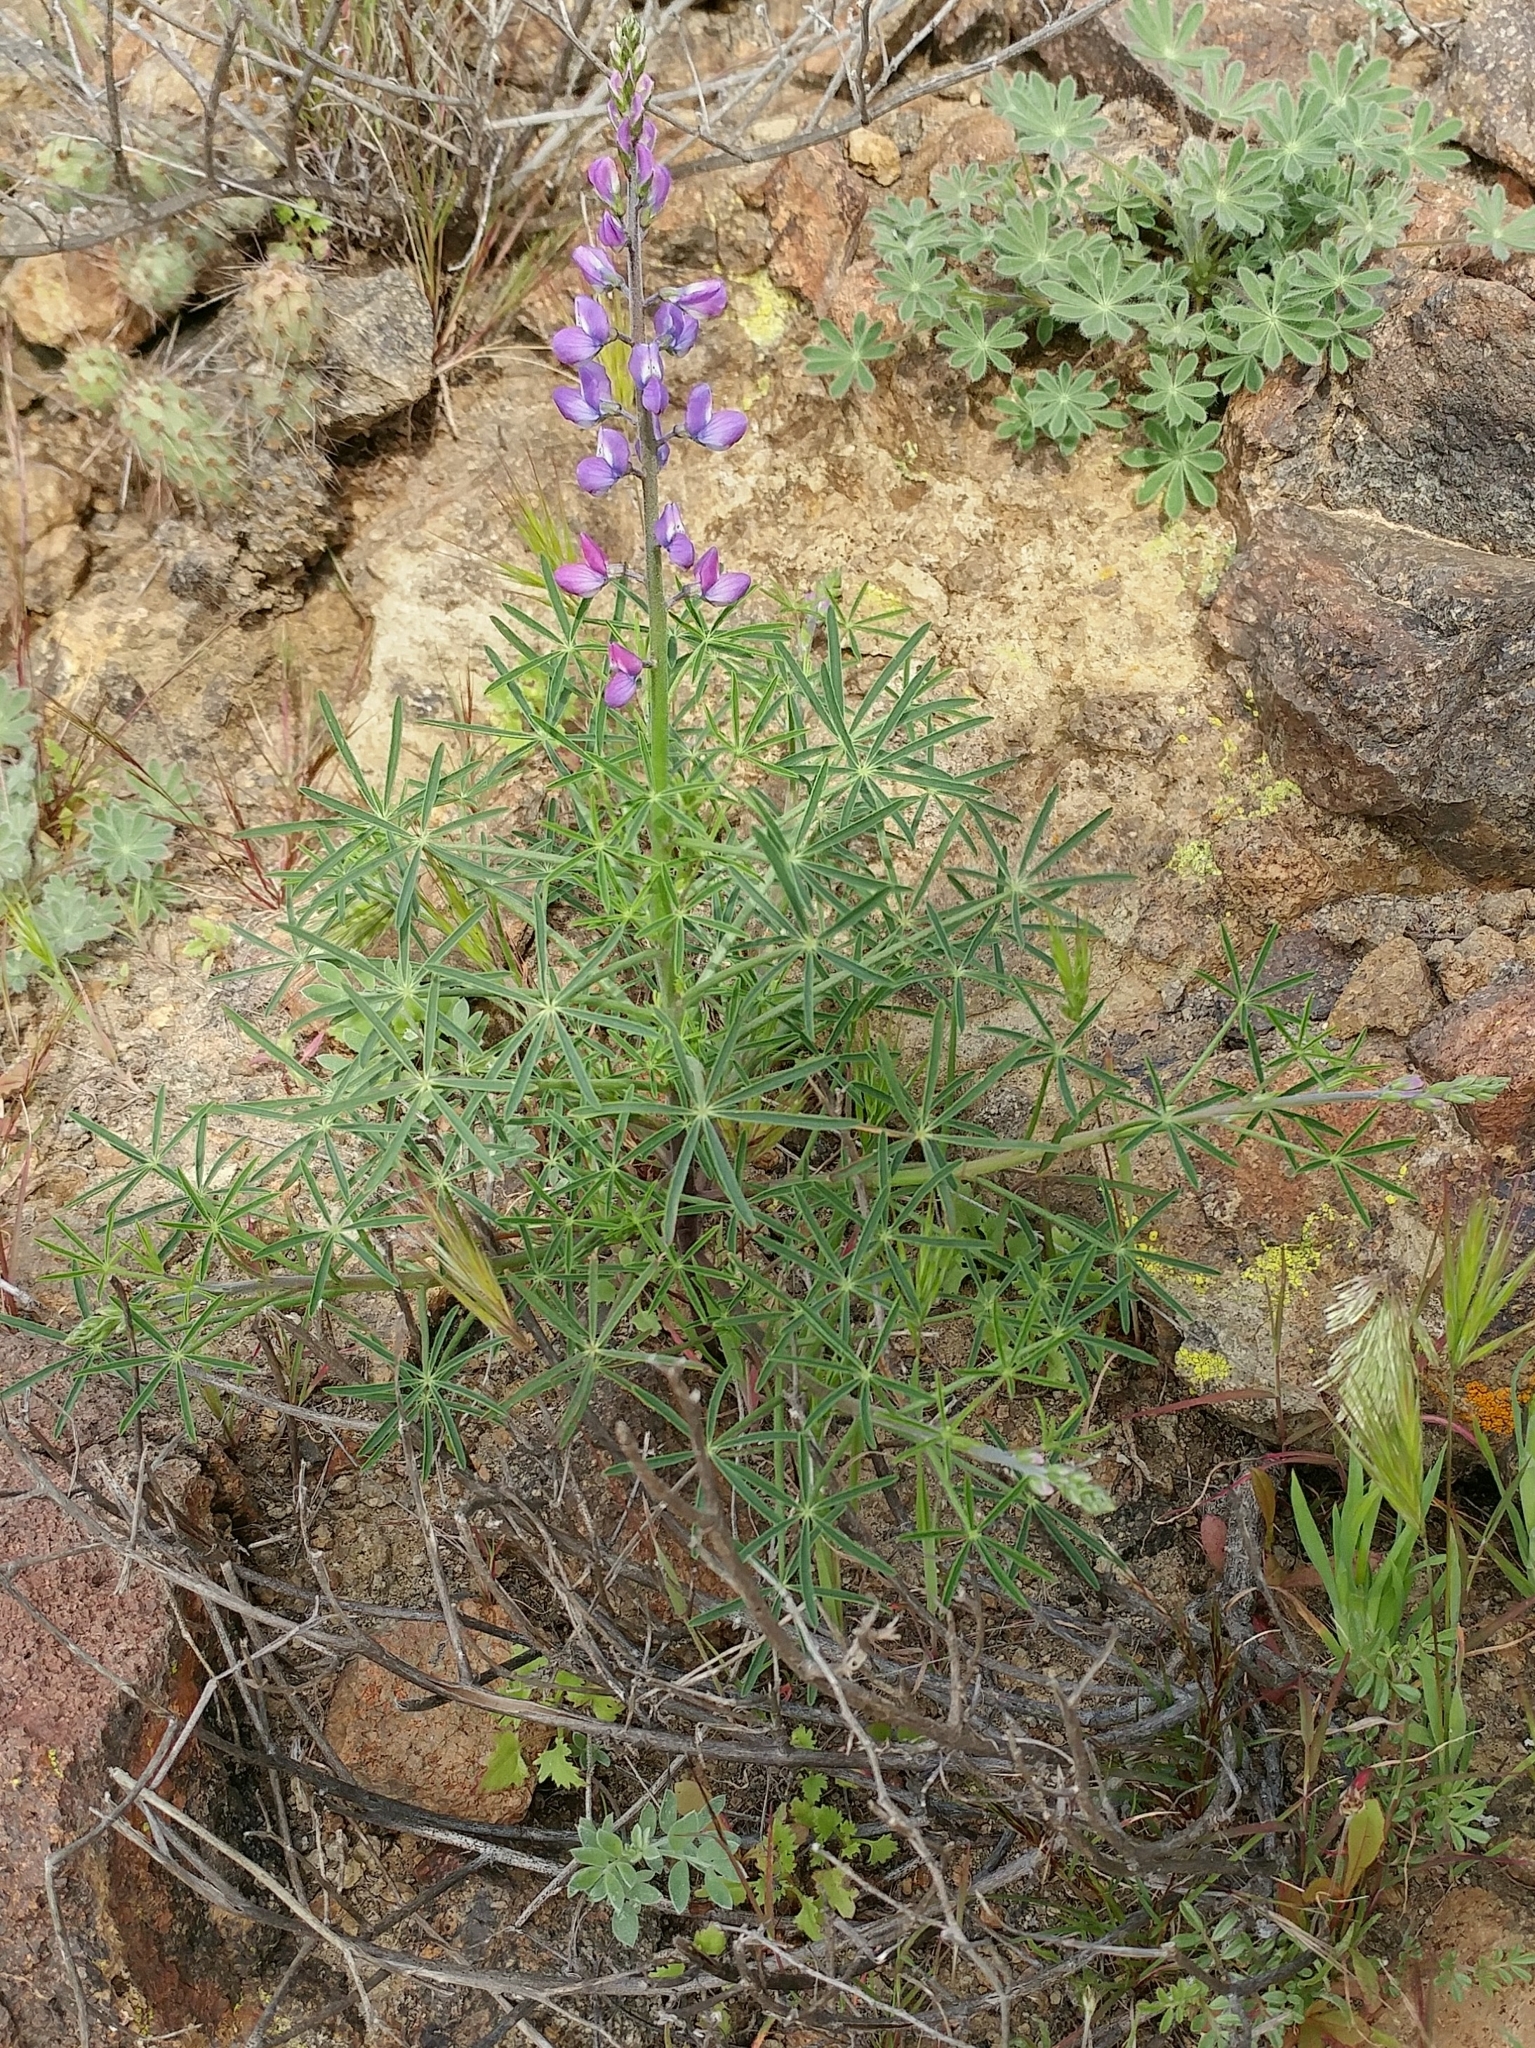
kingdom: Plantae
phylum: Tracheophyta
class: Magnoliopsida
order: Fabales
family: Fabaceae
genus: Lupinus
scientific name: Lupinus truncatus
